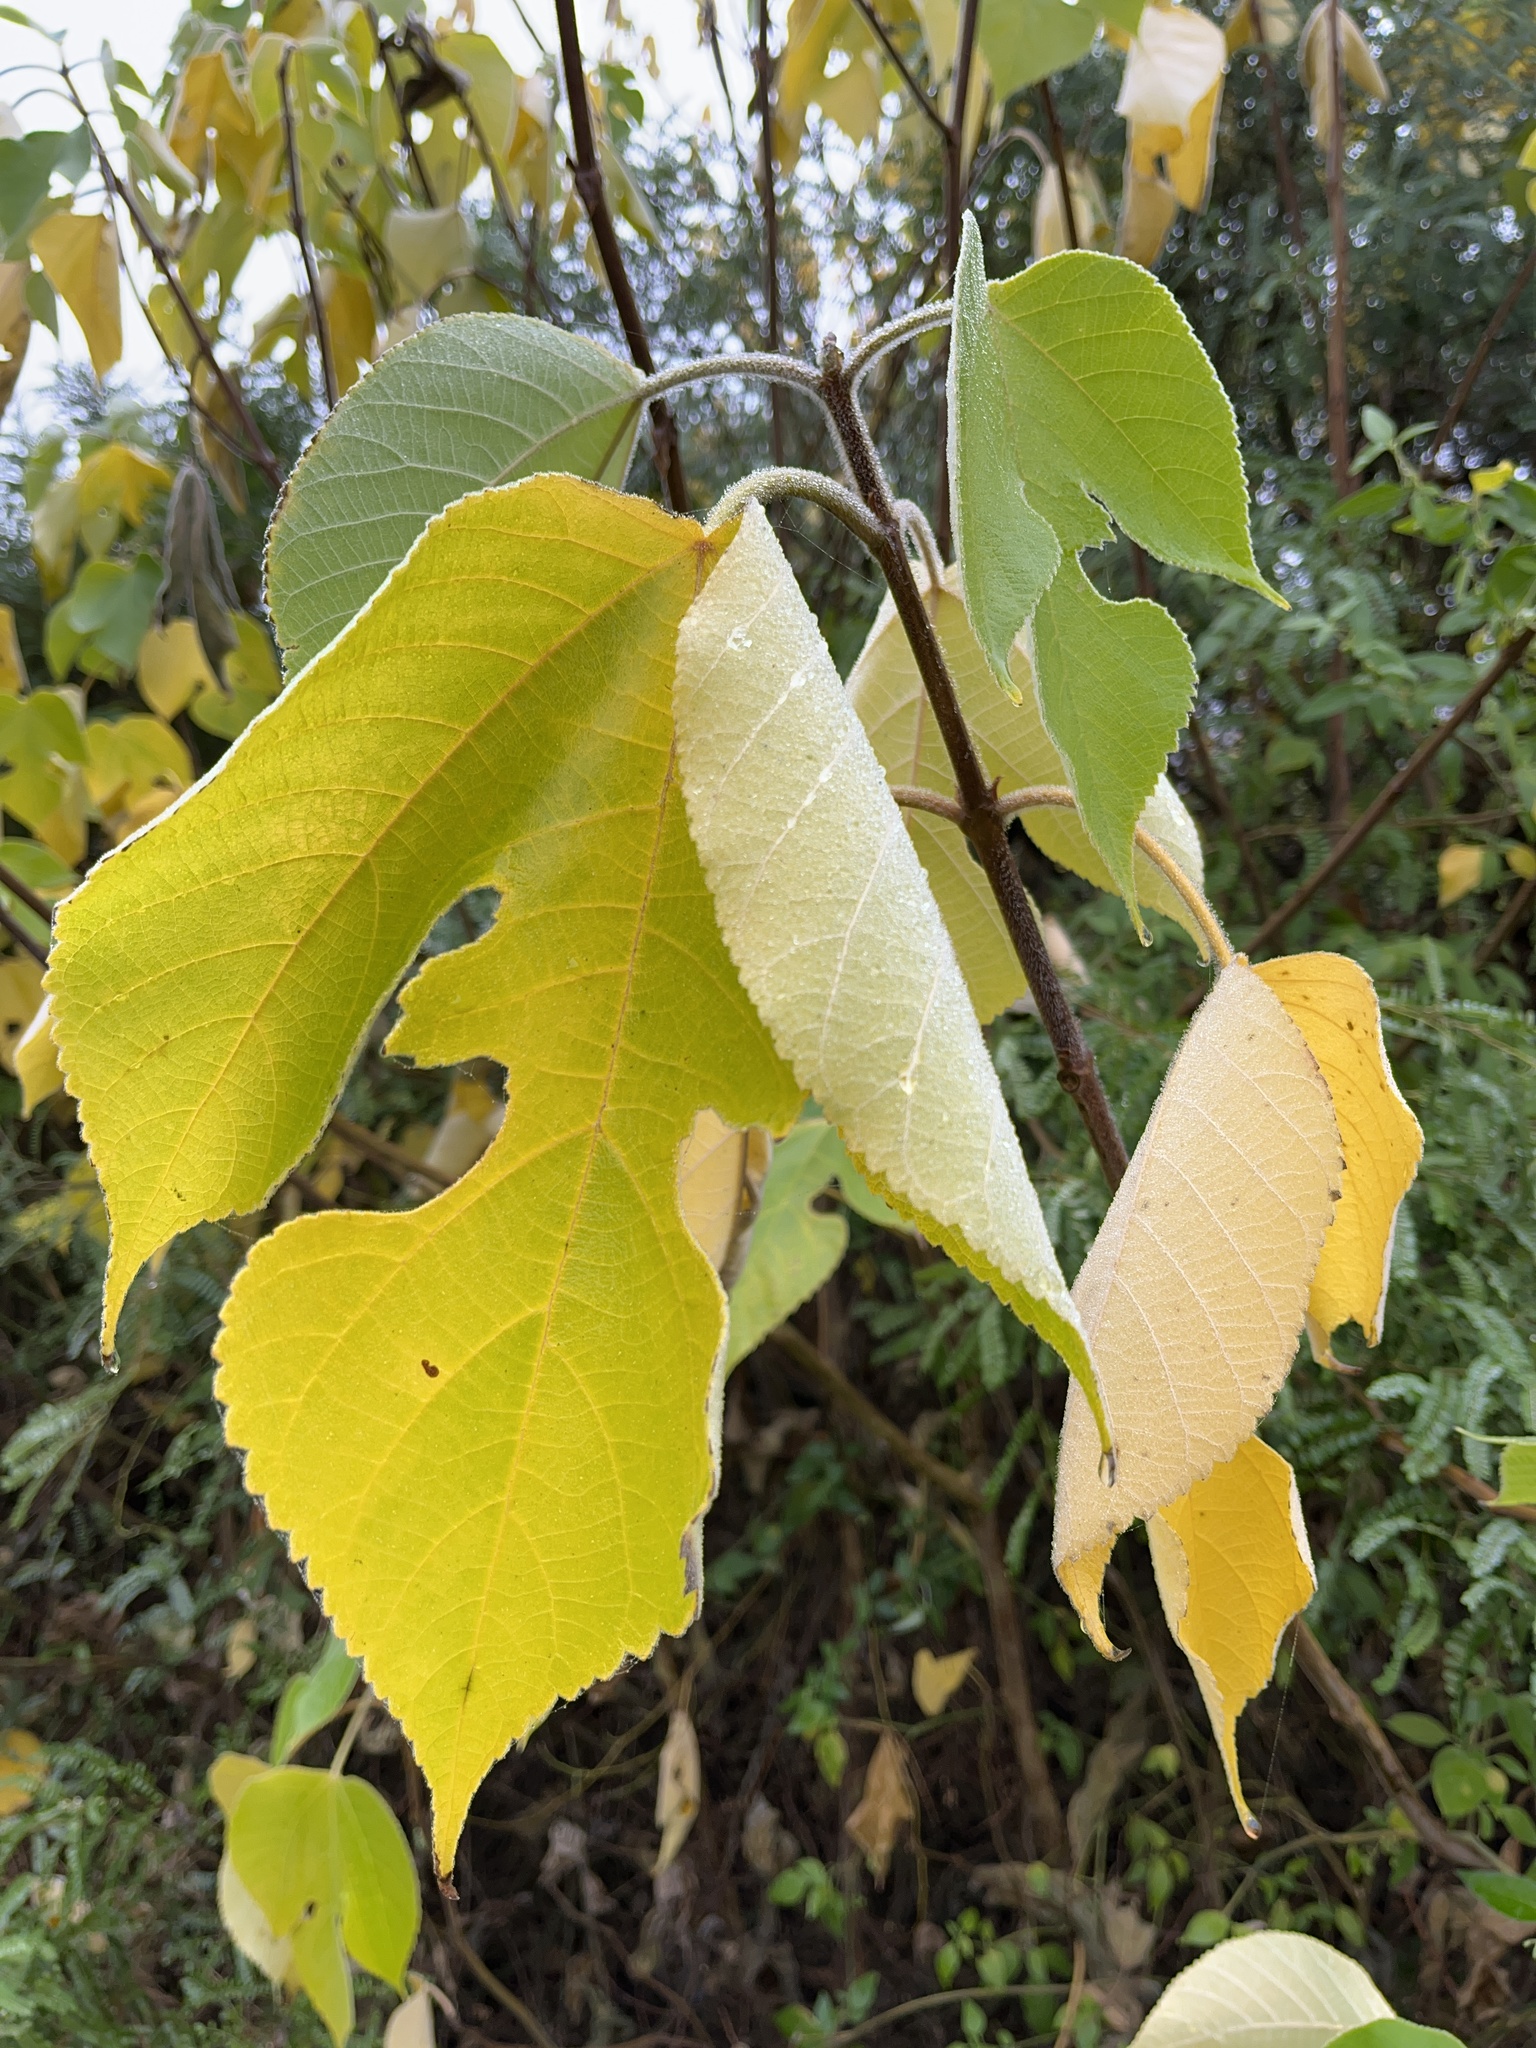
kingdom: Plantae
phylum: Tracheophyta
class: Magnoliopsida
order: Rosales
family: Moraceae
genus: Broussonetia
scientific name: Broussonetia papyrifera
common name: Paper mulberry
